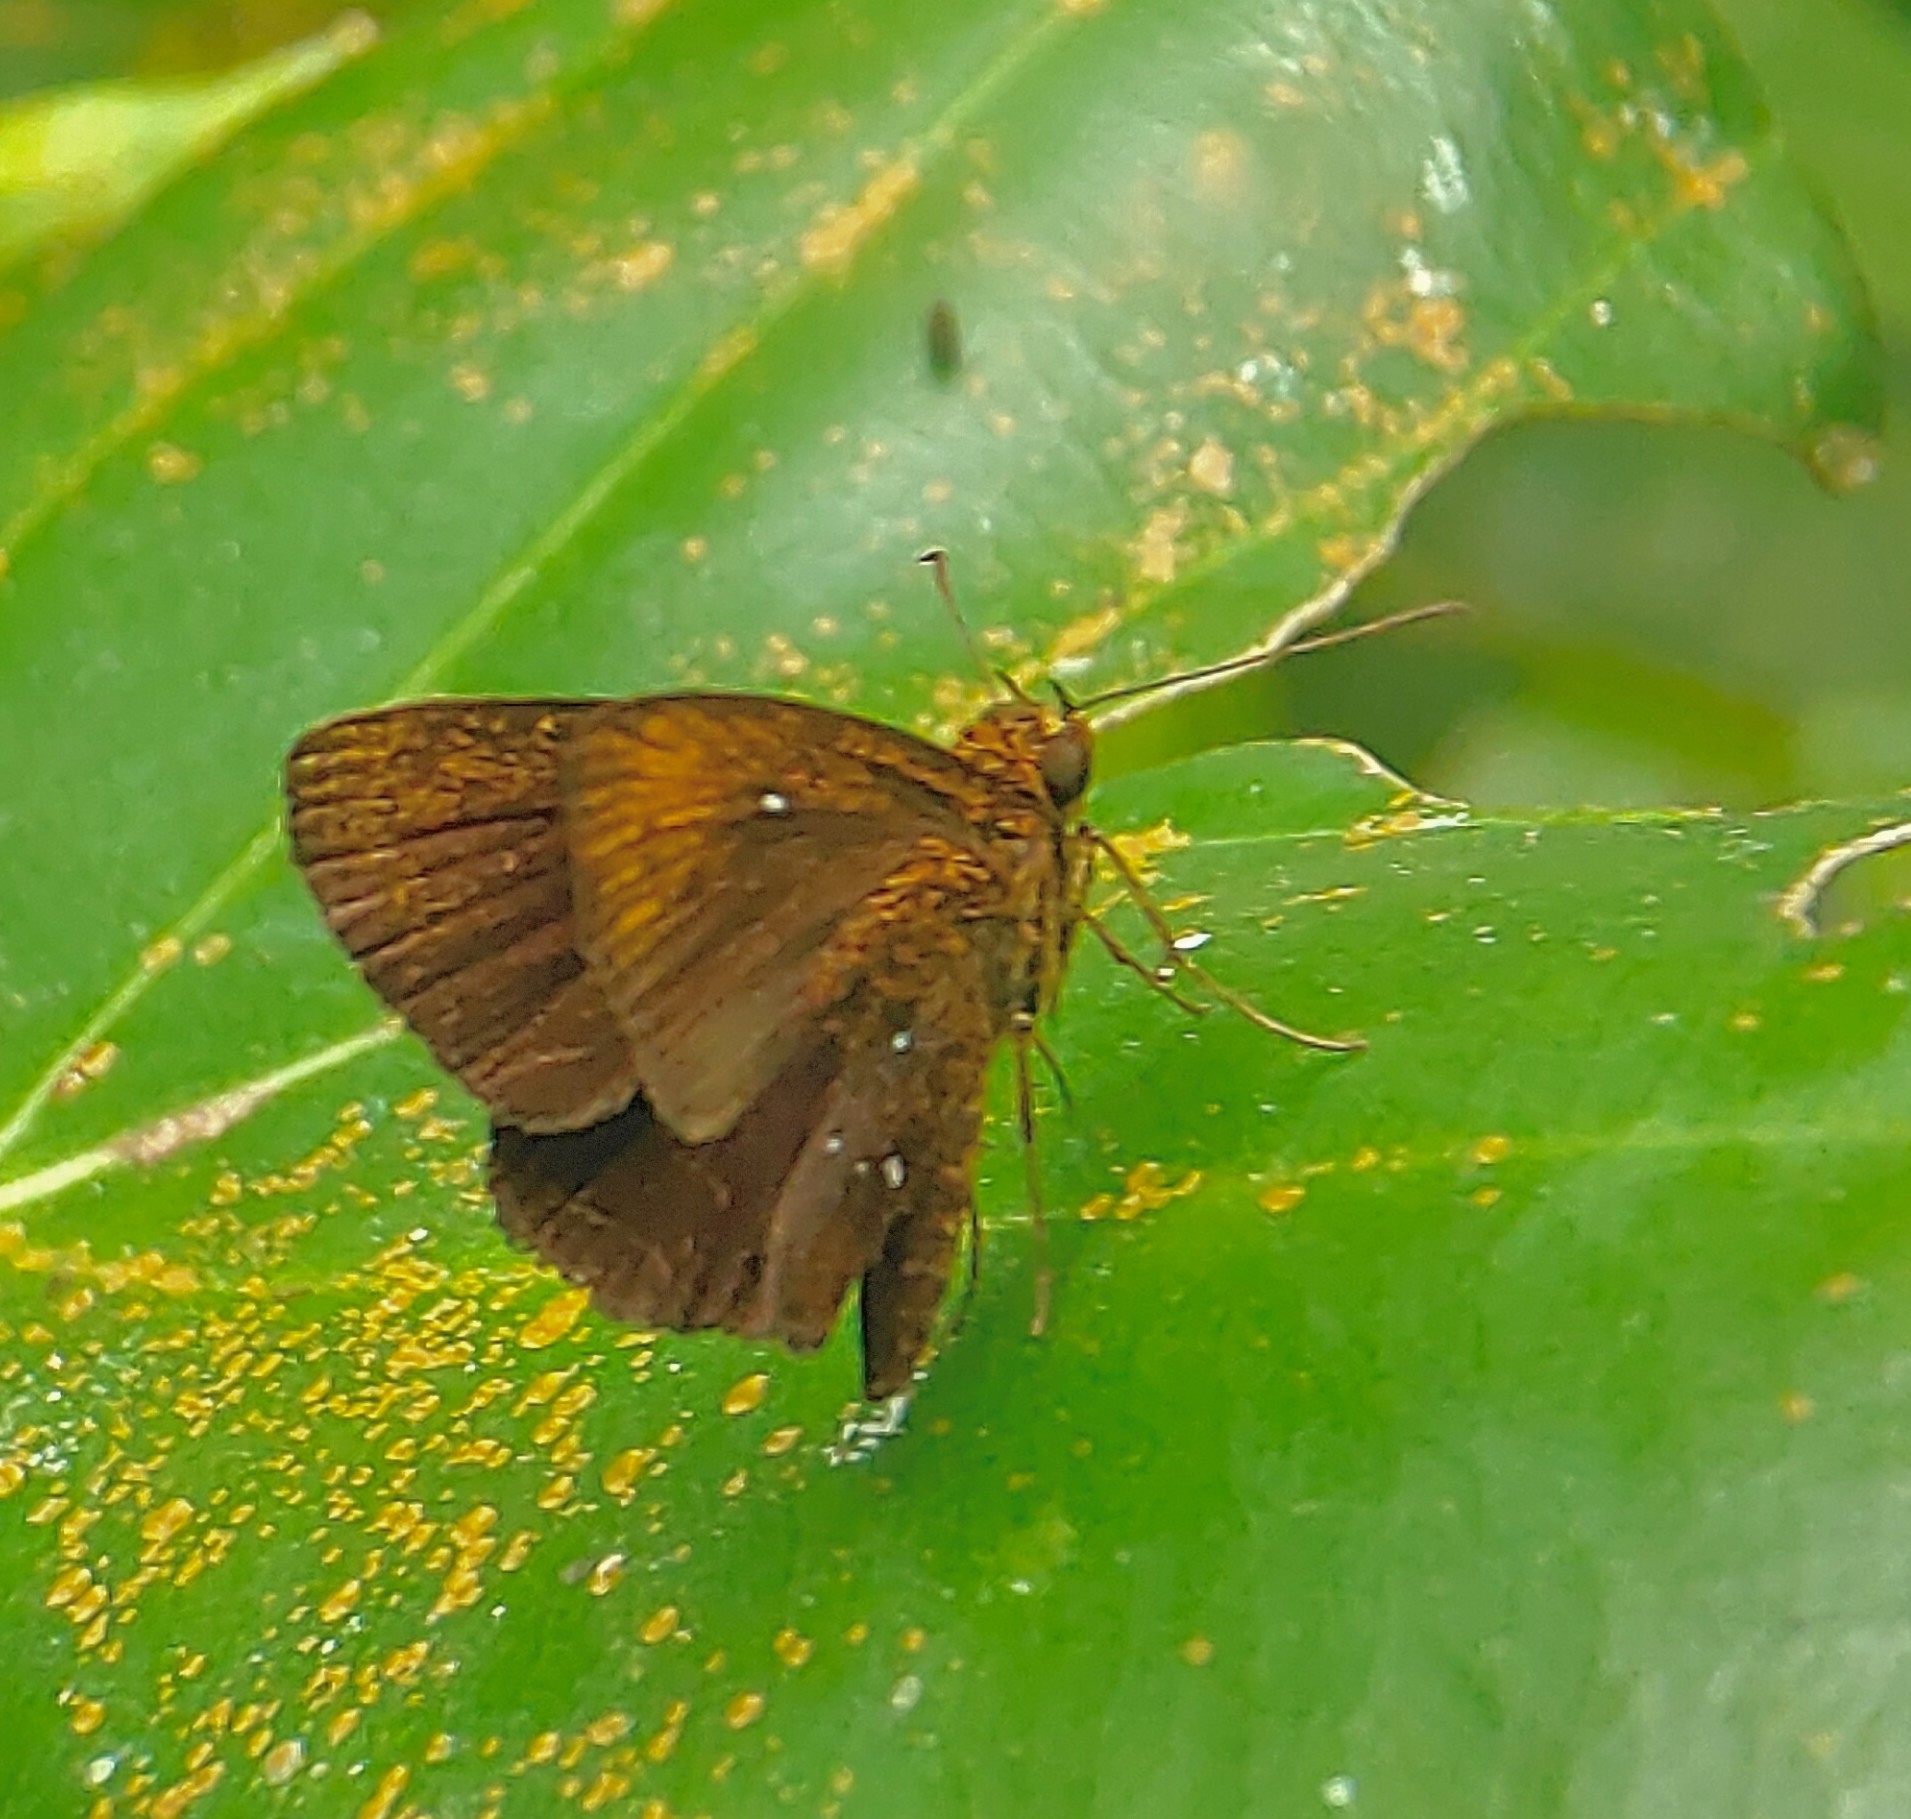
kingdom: Animalia
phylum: Arthropoda
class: Insecta
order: Lepidoptera
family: Hesperiidae
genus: Iambrix
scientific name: Iambrix stellifer
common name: Starry bob
